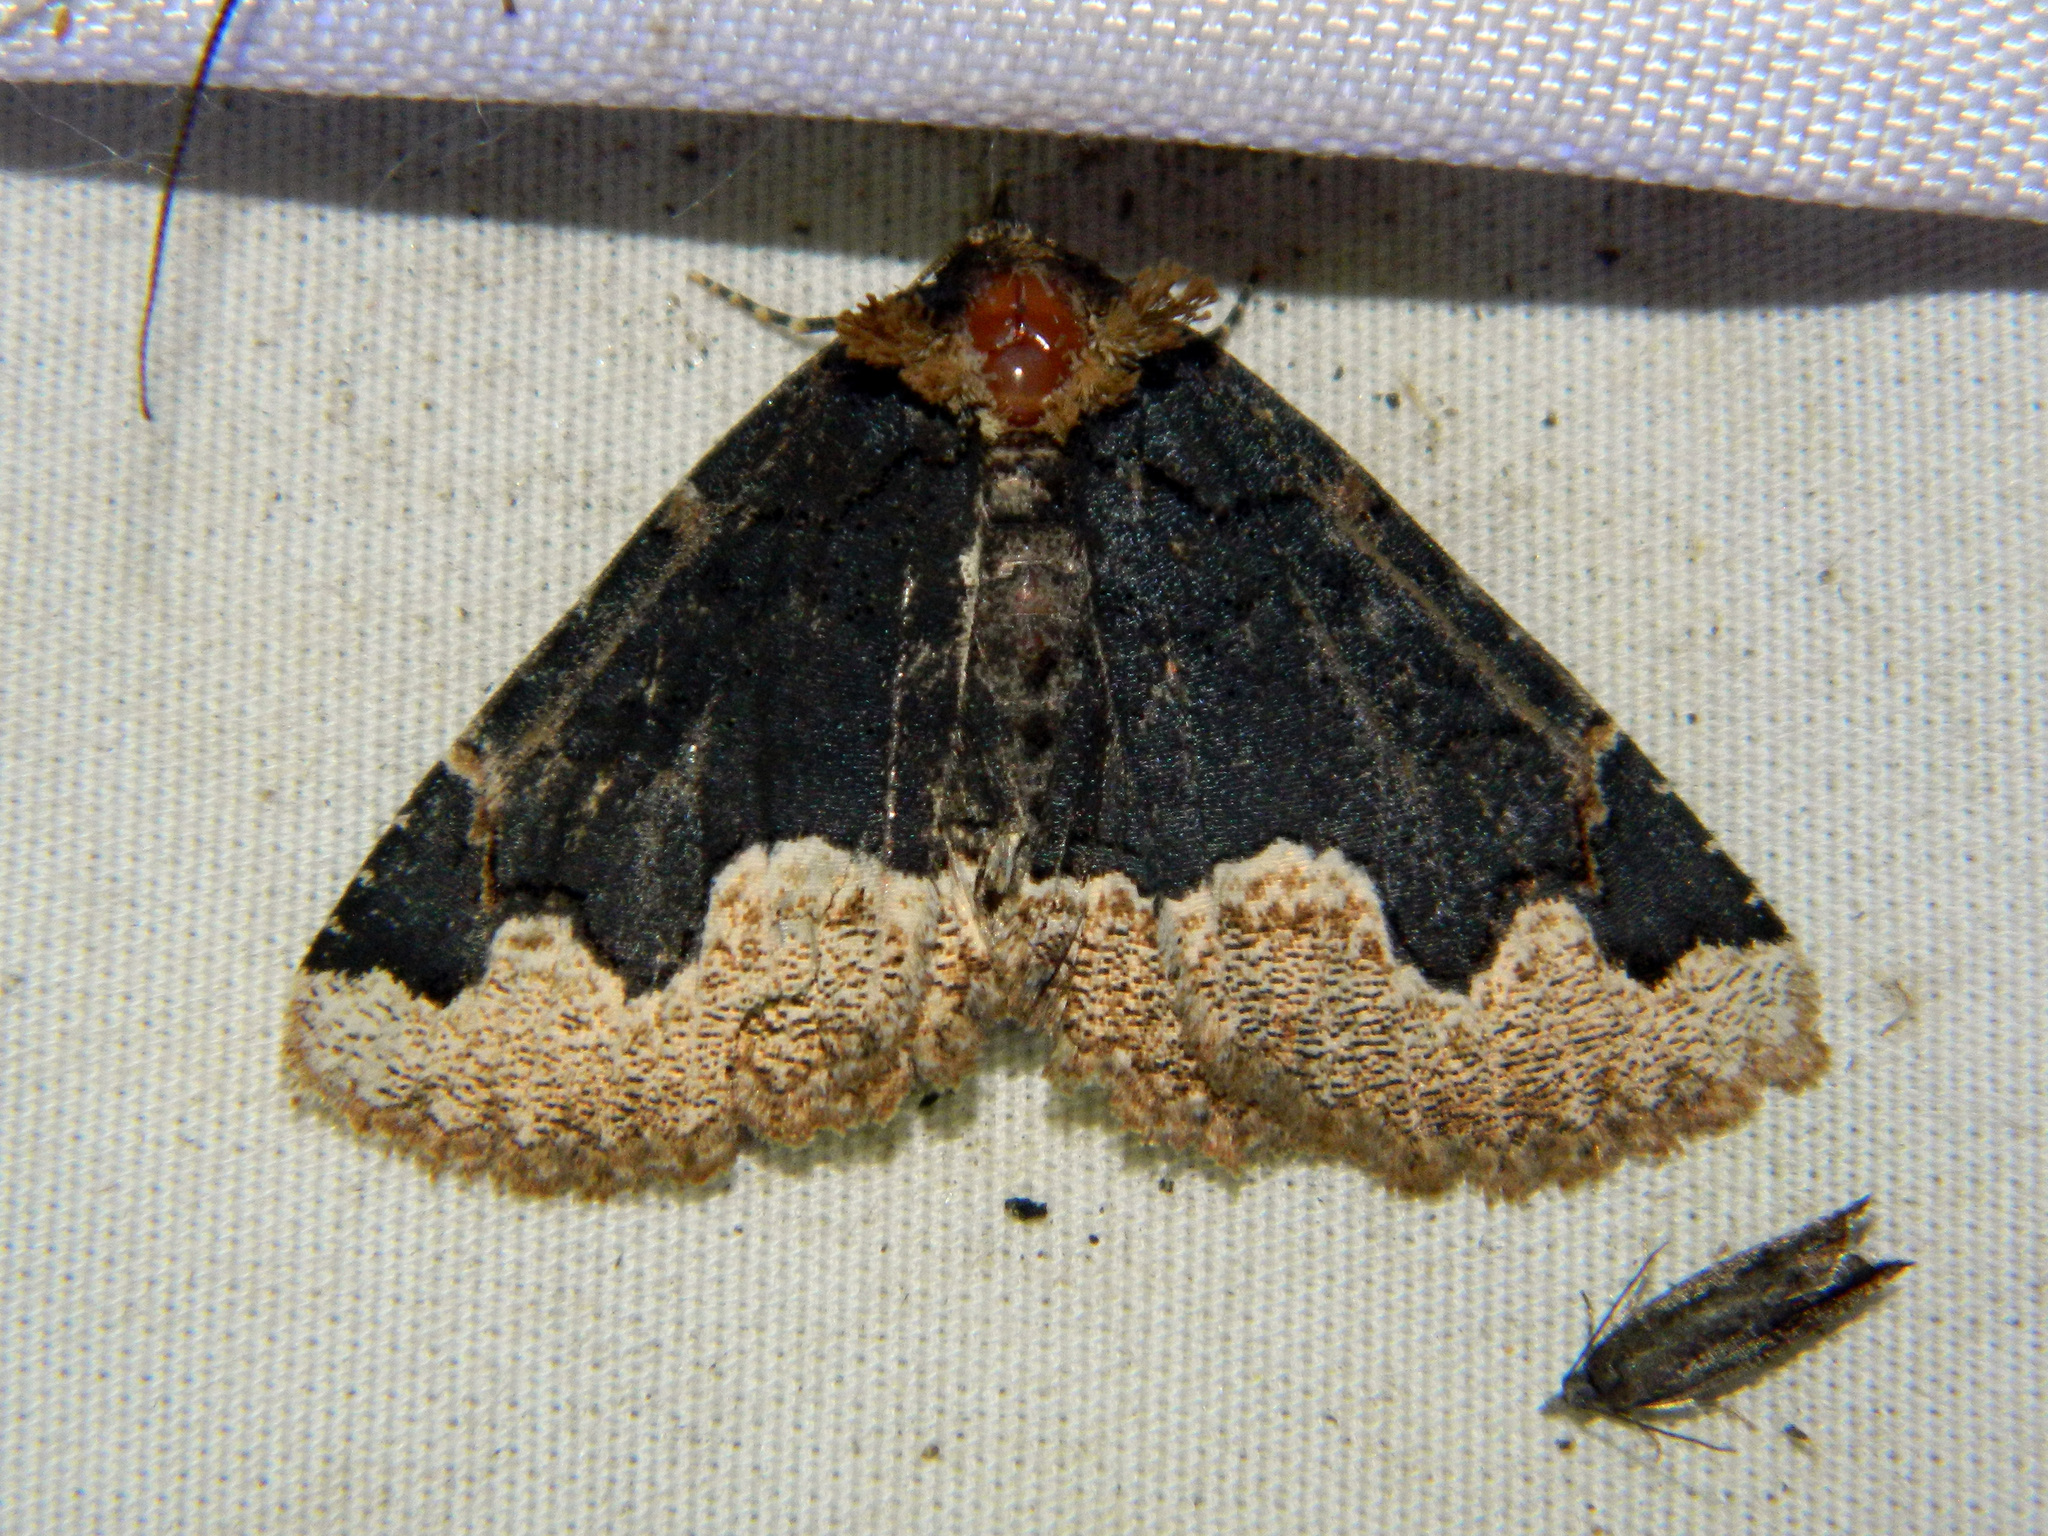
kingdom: Animalia
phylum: Arthropoda
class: Insecta
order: Lepidoptera
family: Erebidae
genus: Zale
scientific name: Zale horrida
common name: Horrid zale moth
